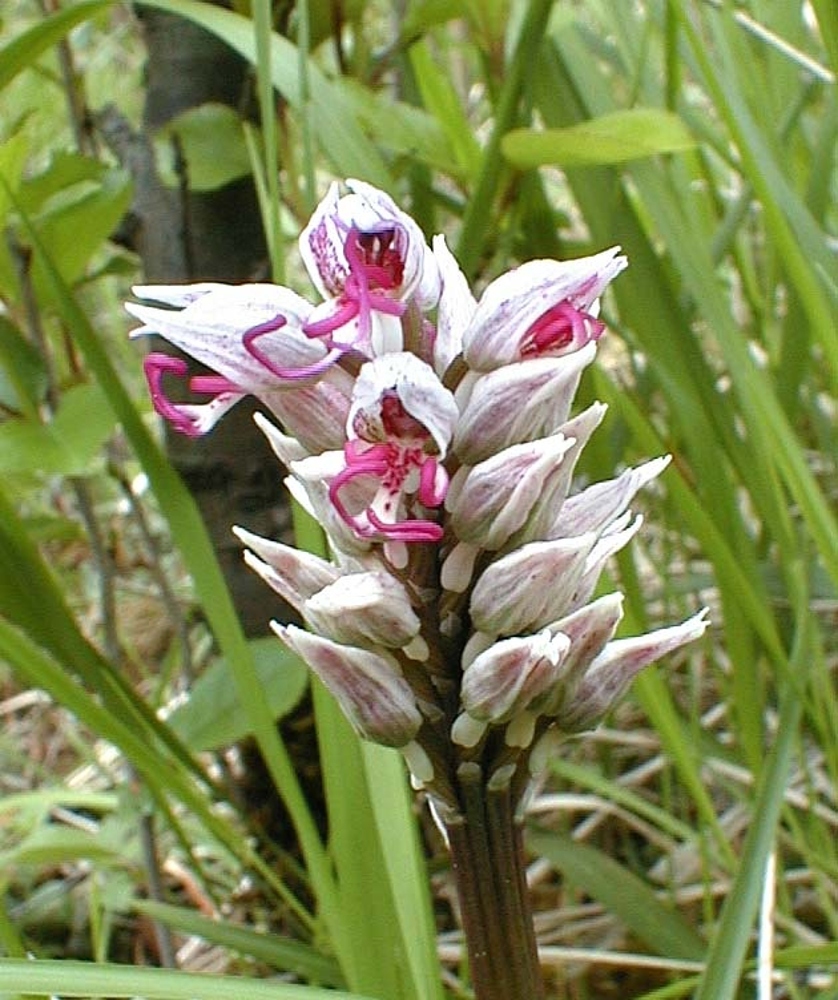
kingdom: Plantae
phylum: Tracheophyta
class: Liliopsida
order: Asparagales
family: Orchidaceae
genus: Orchis
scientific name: Orchis simia
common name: Monkey orchid
